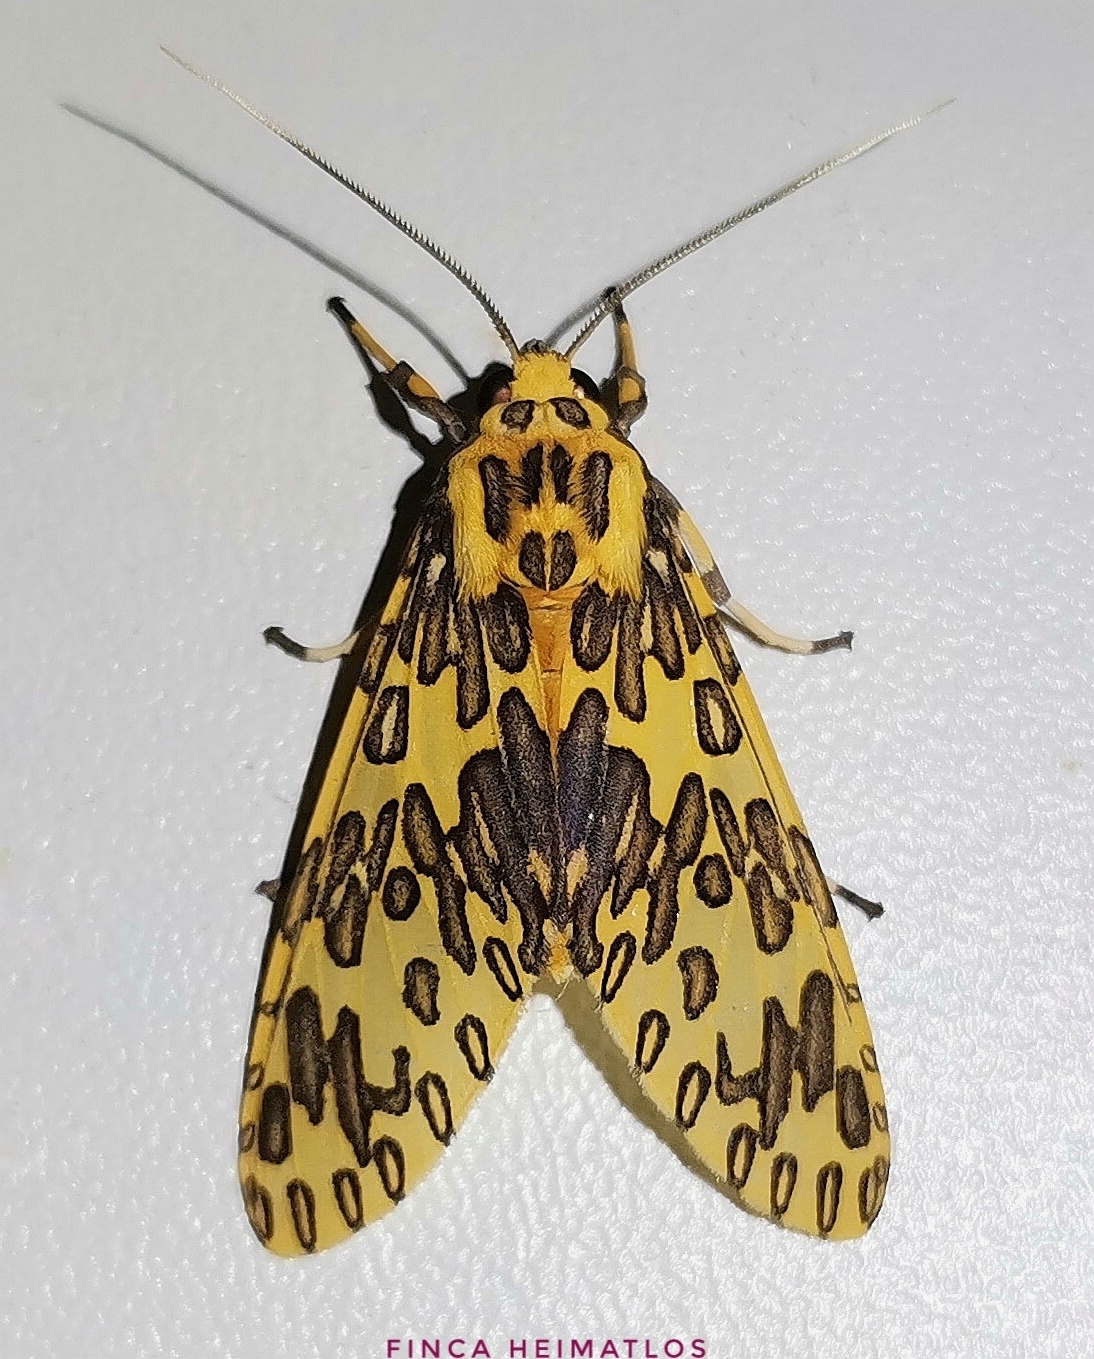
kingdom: Animalia
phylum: Arthropoda
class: Insecta
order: Lepidoptera
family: Erebidae
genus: Amaxia
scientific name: Amaxia pandama
